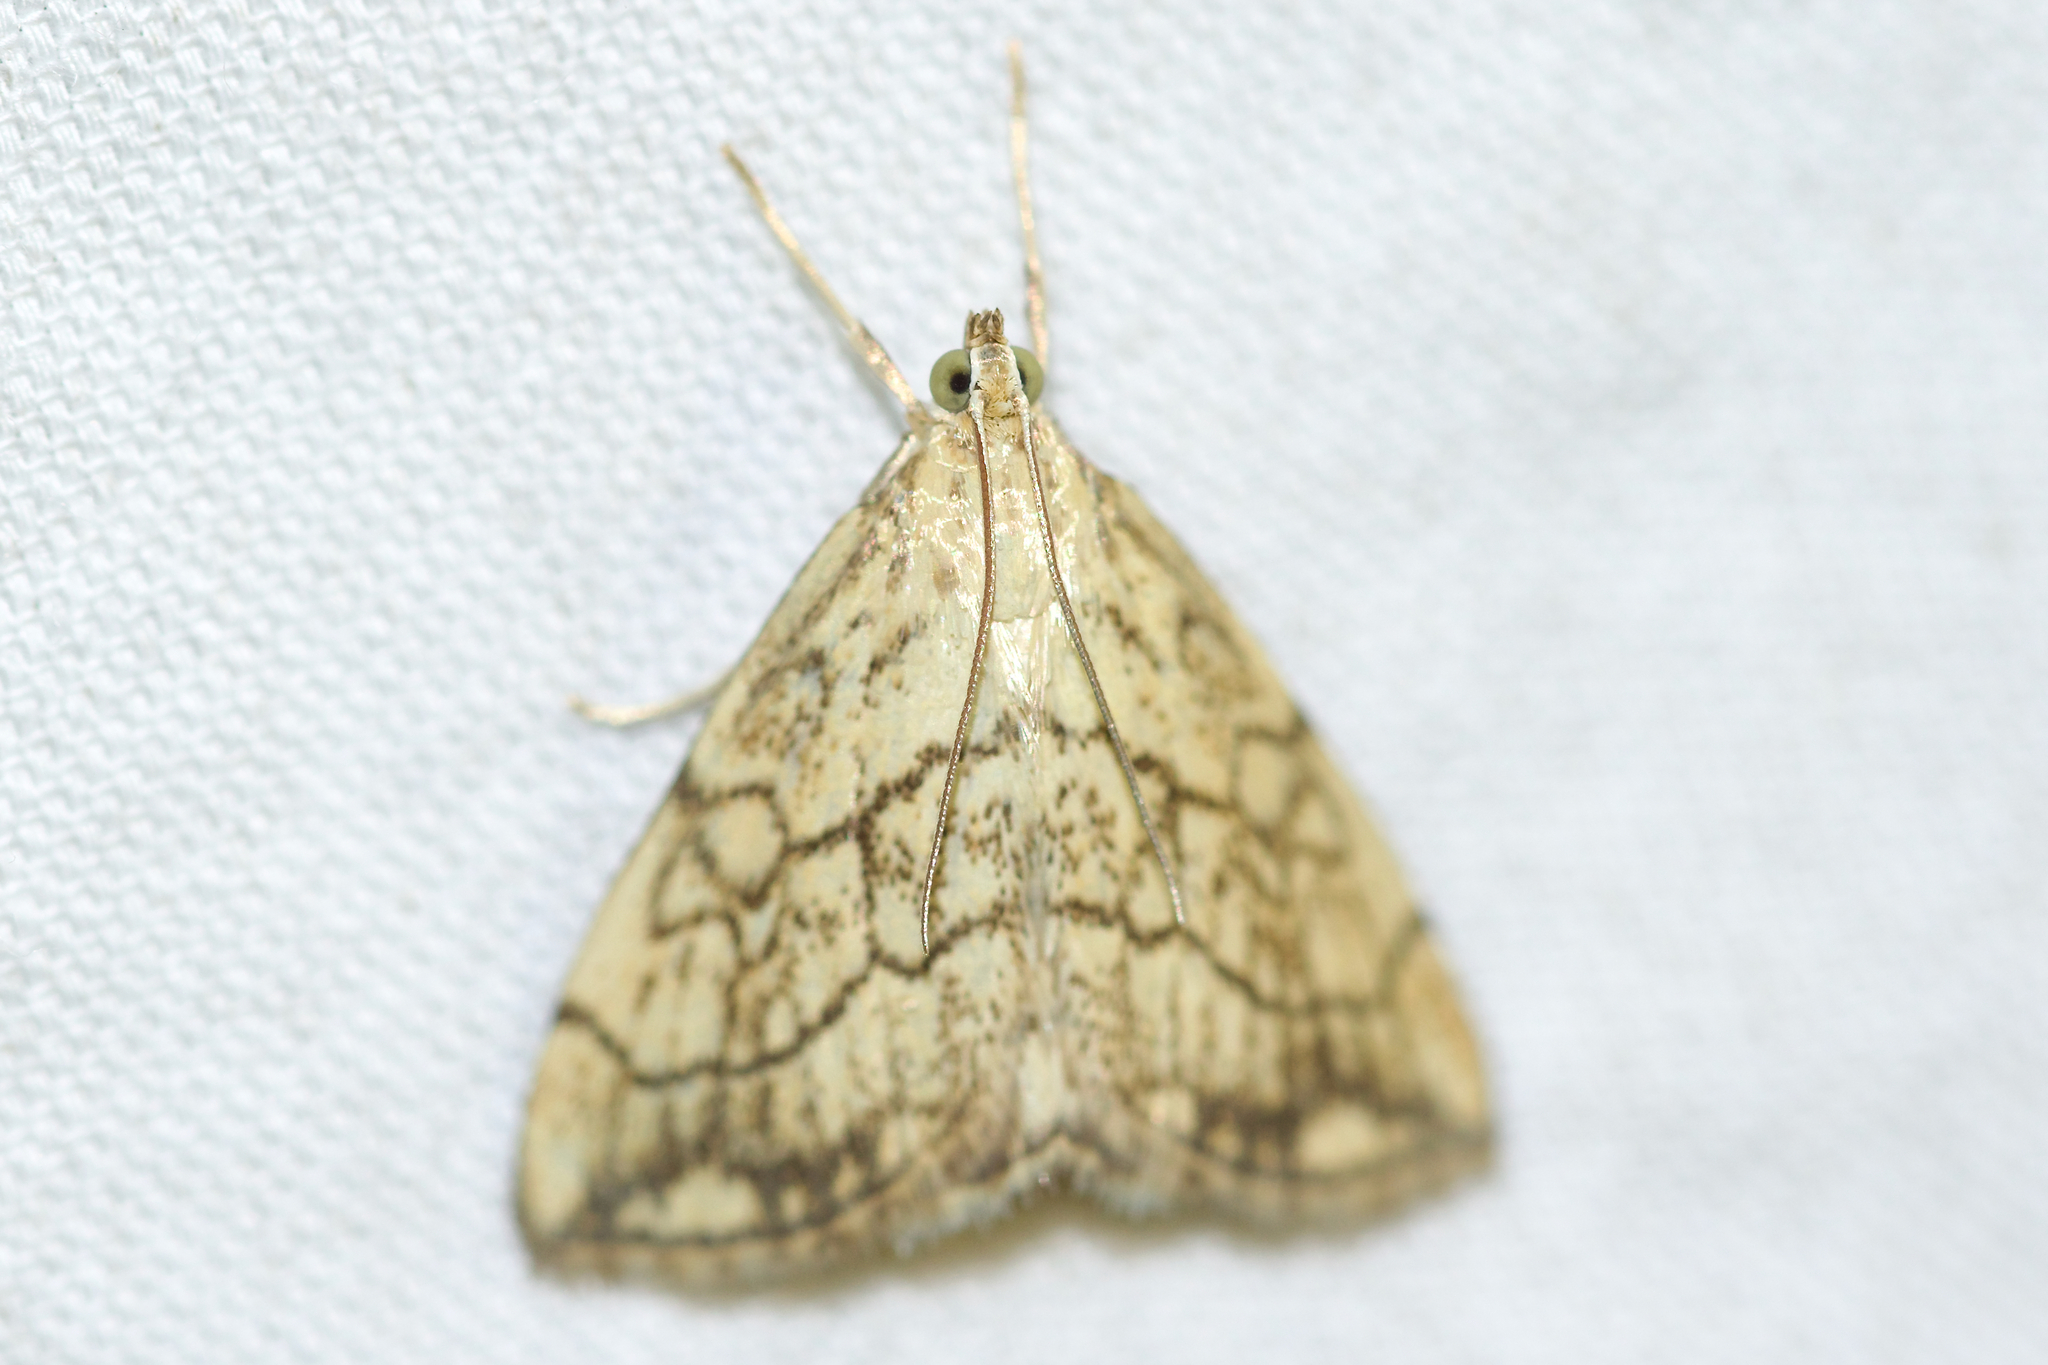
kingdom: Animalia
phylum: Arthropoda
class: Insecta
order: Lepidoptera
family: Crambidae
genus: Evergestis
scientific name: Evergestis pallidata
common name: Chequered pearl
